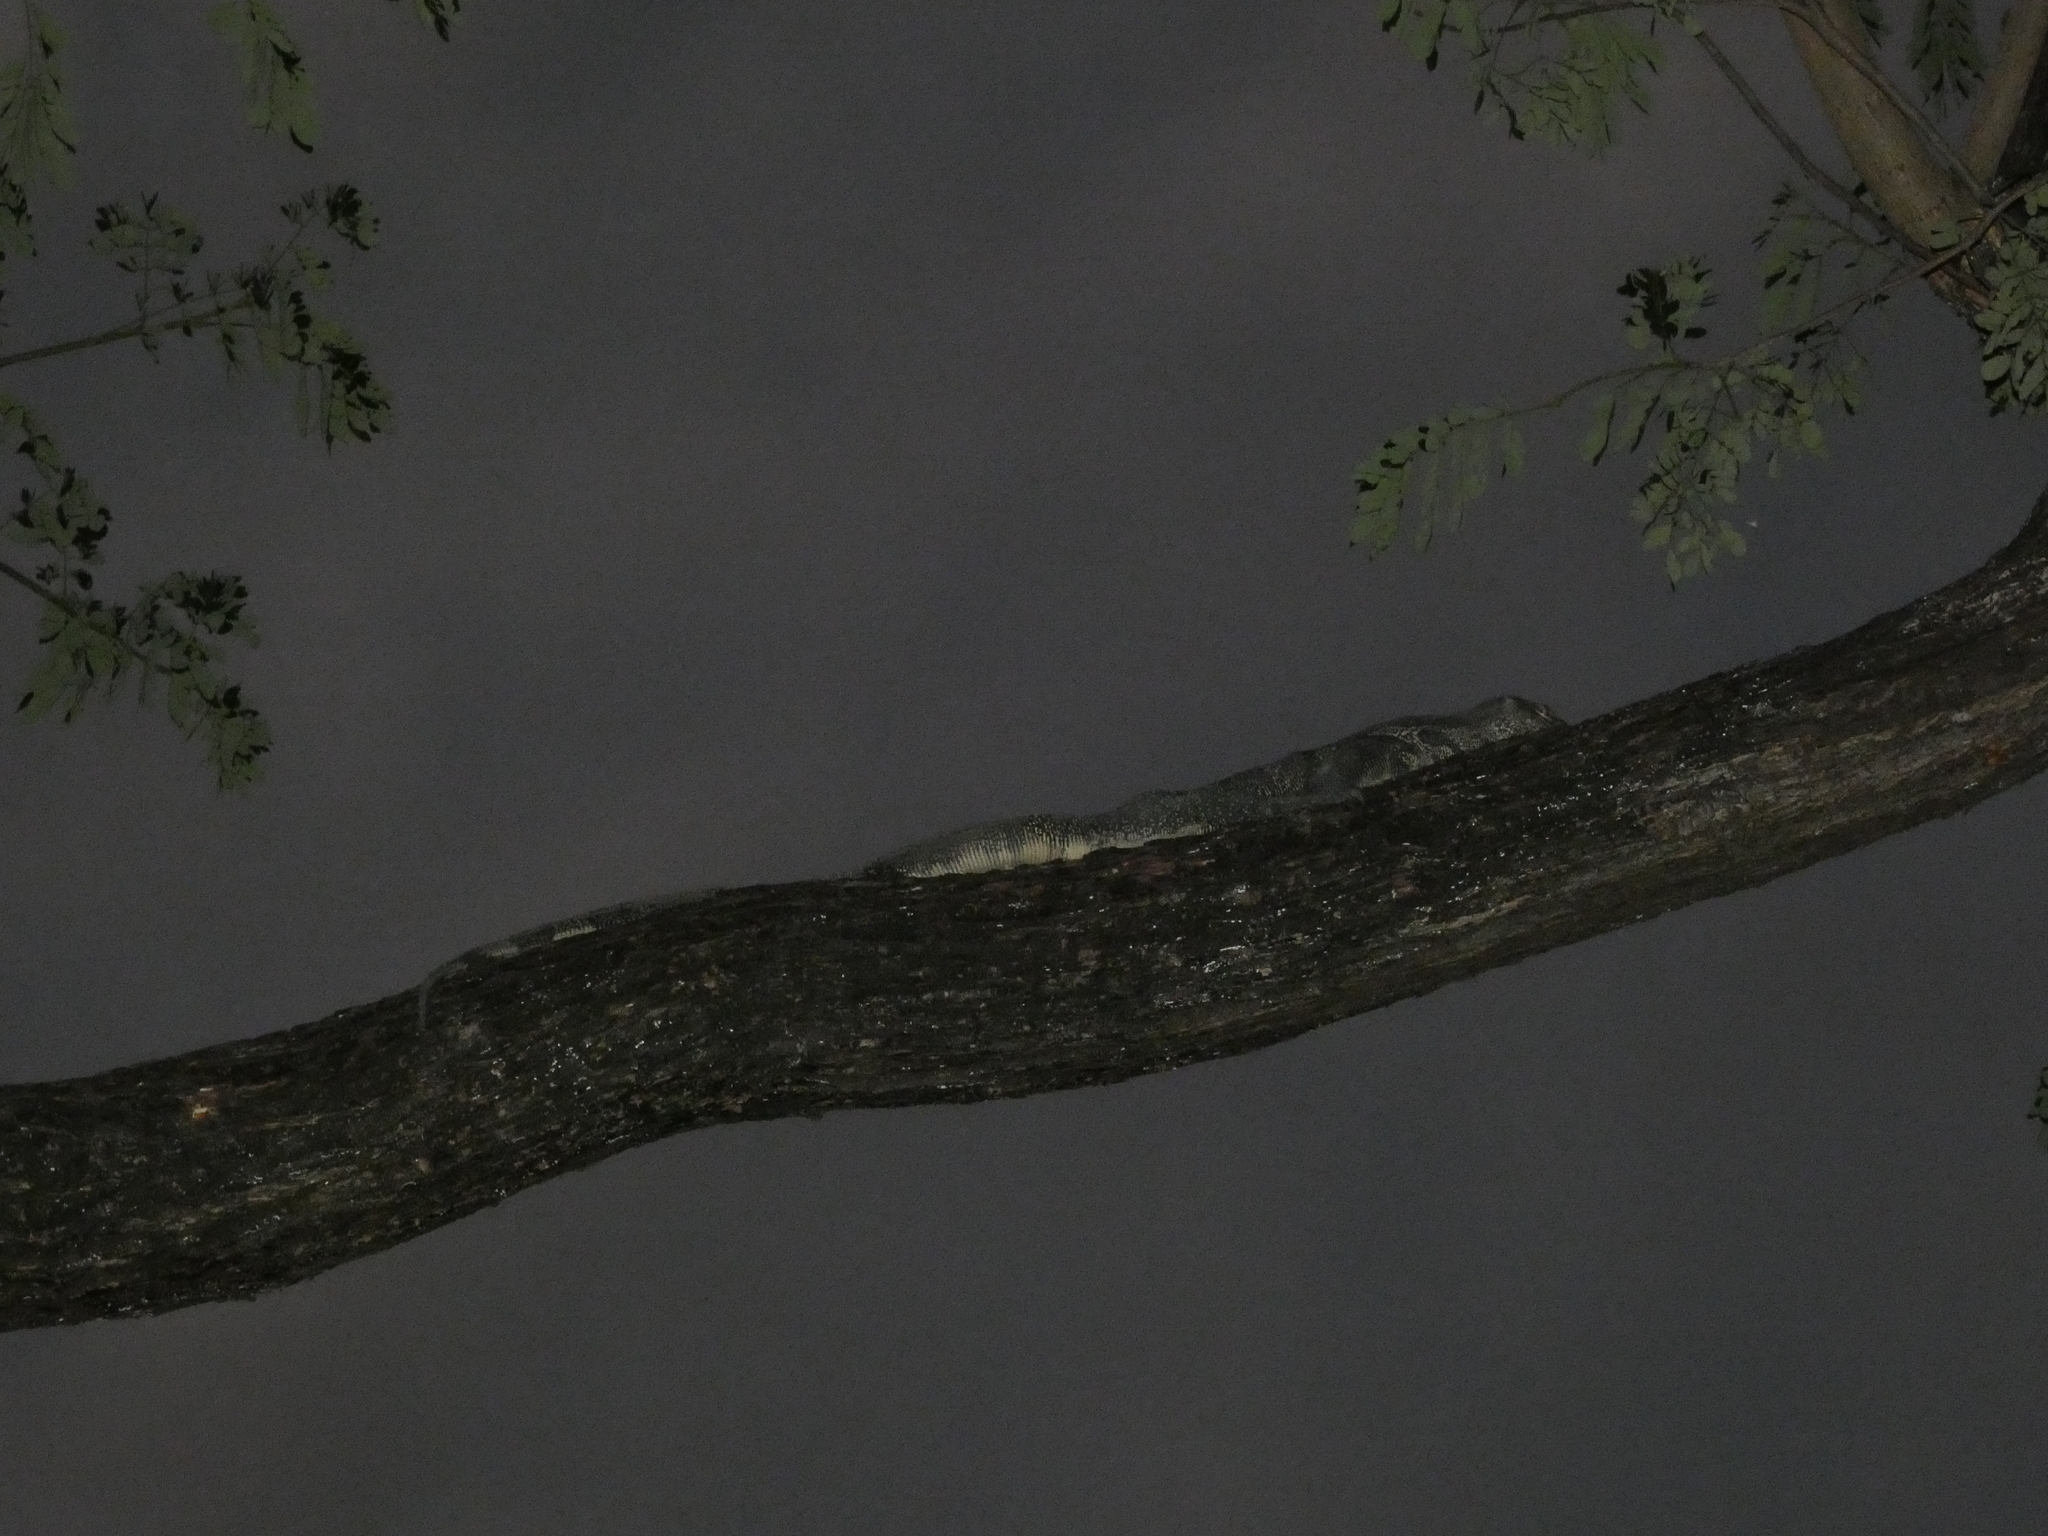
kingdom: Animalia
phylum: Chordata
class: Squamata
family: Varanidae
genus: Varanus
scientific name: Varanus salvator
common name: Common water monitor
